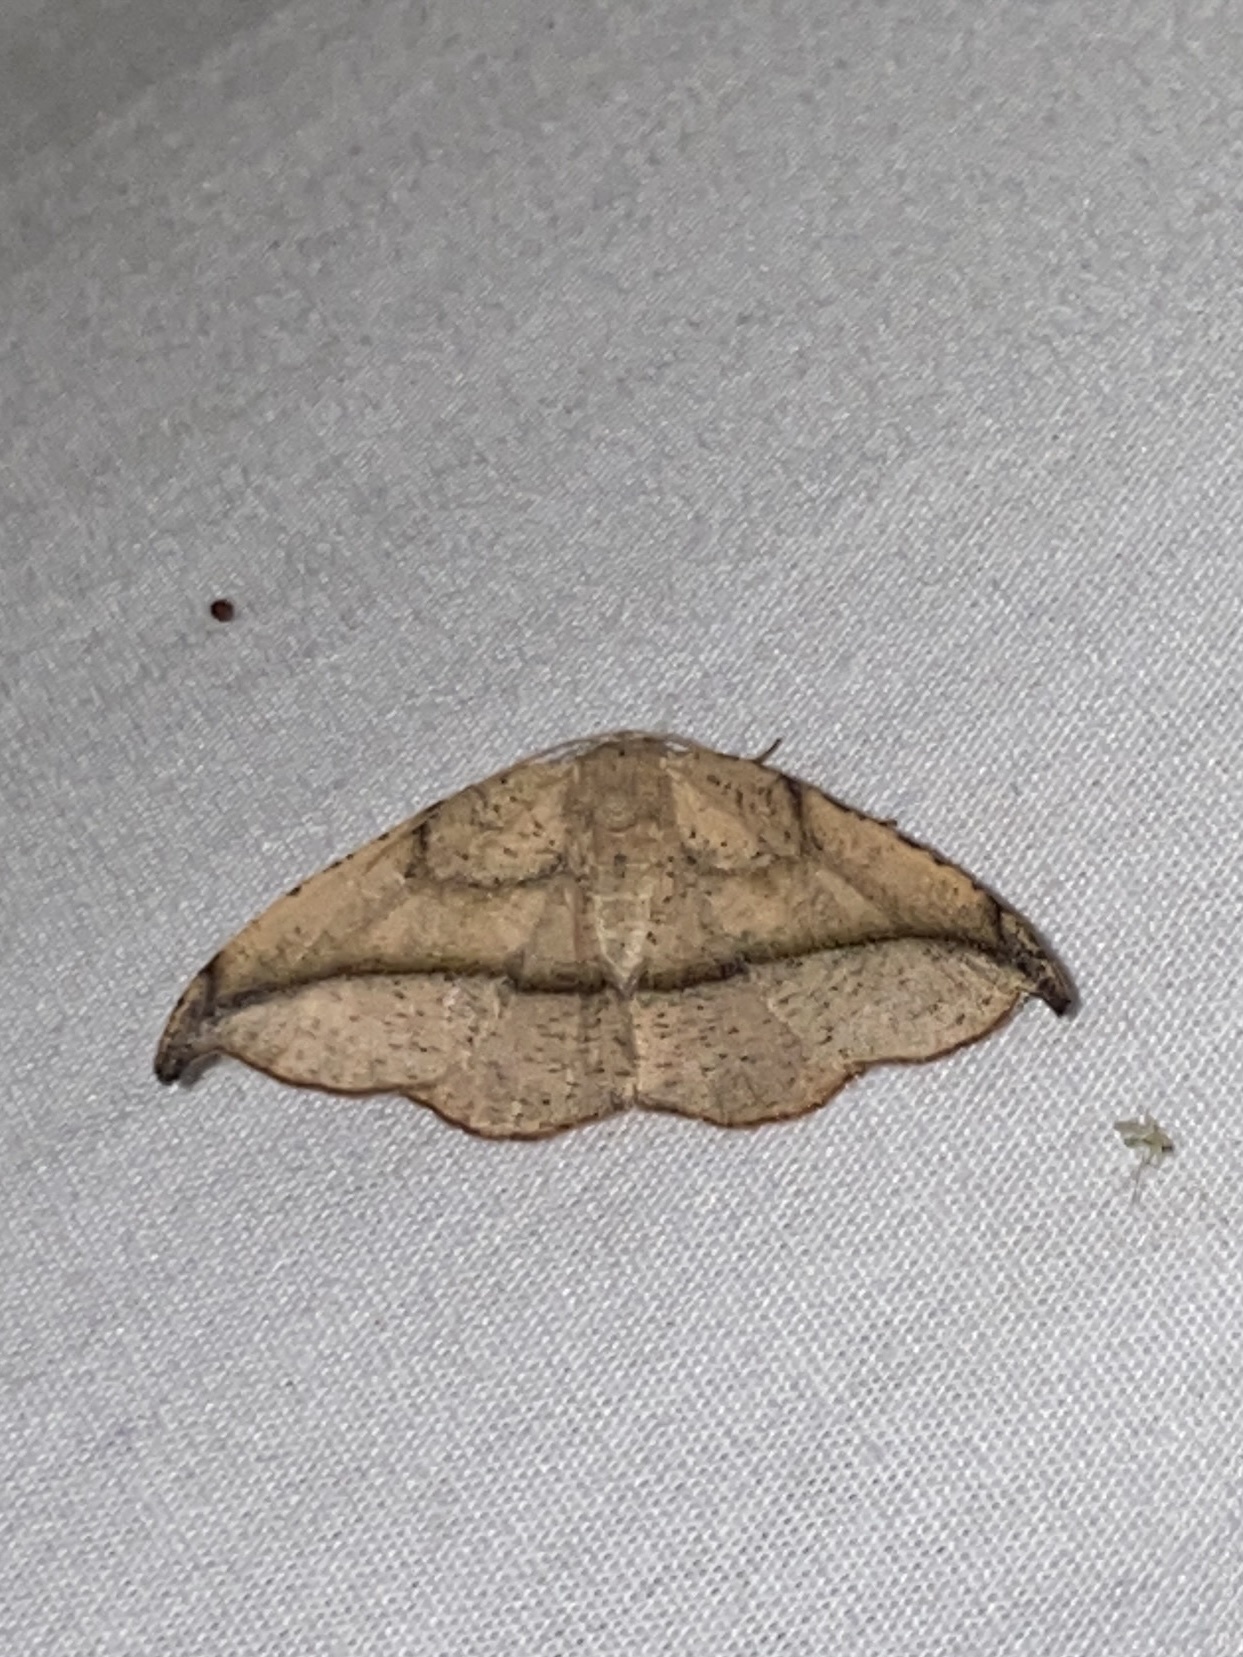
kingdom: Animalia
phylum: Arthropoda
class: Insecta
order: Lepidoptera
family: Geometridae
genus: Patalene
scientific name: Patalene olyzonaria
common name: Juniper geometer moth
